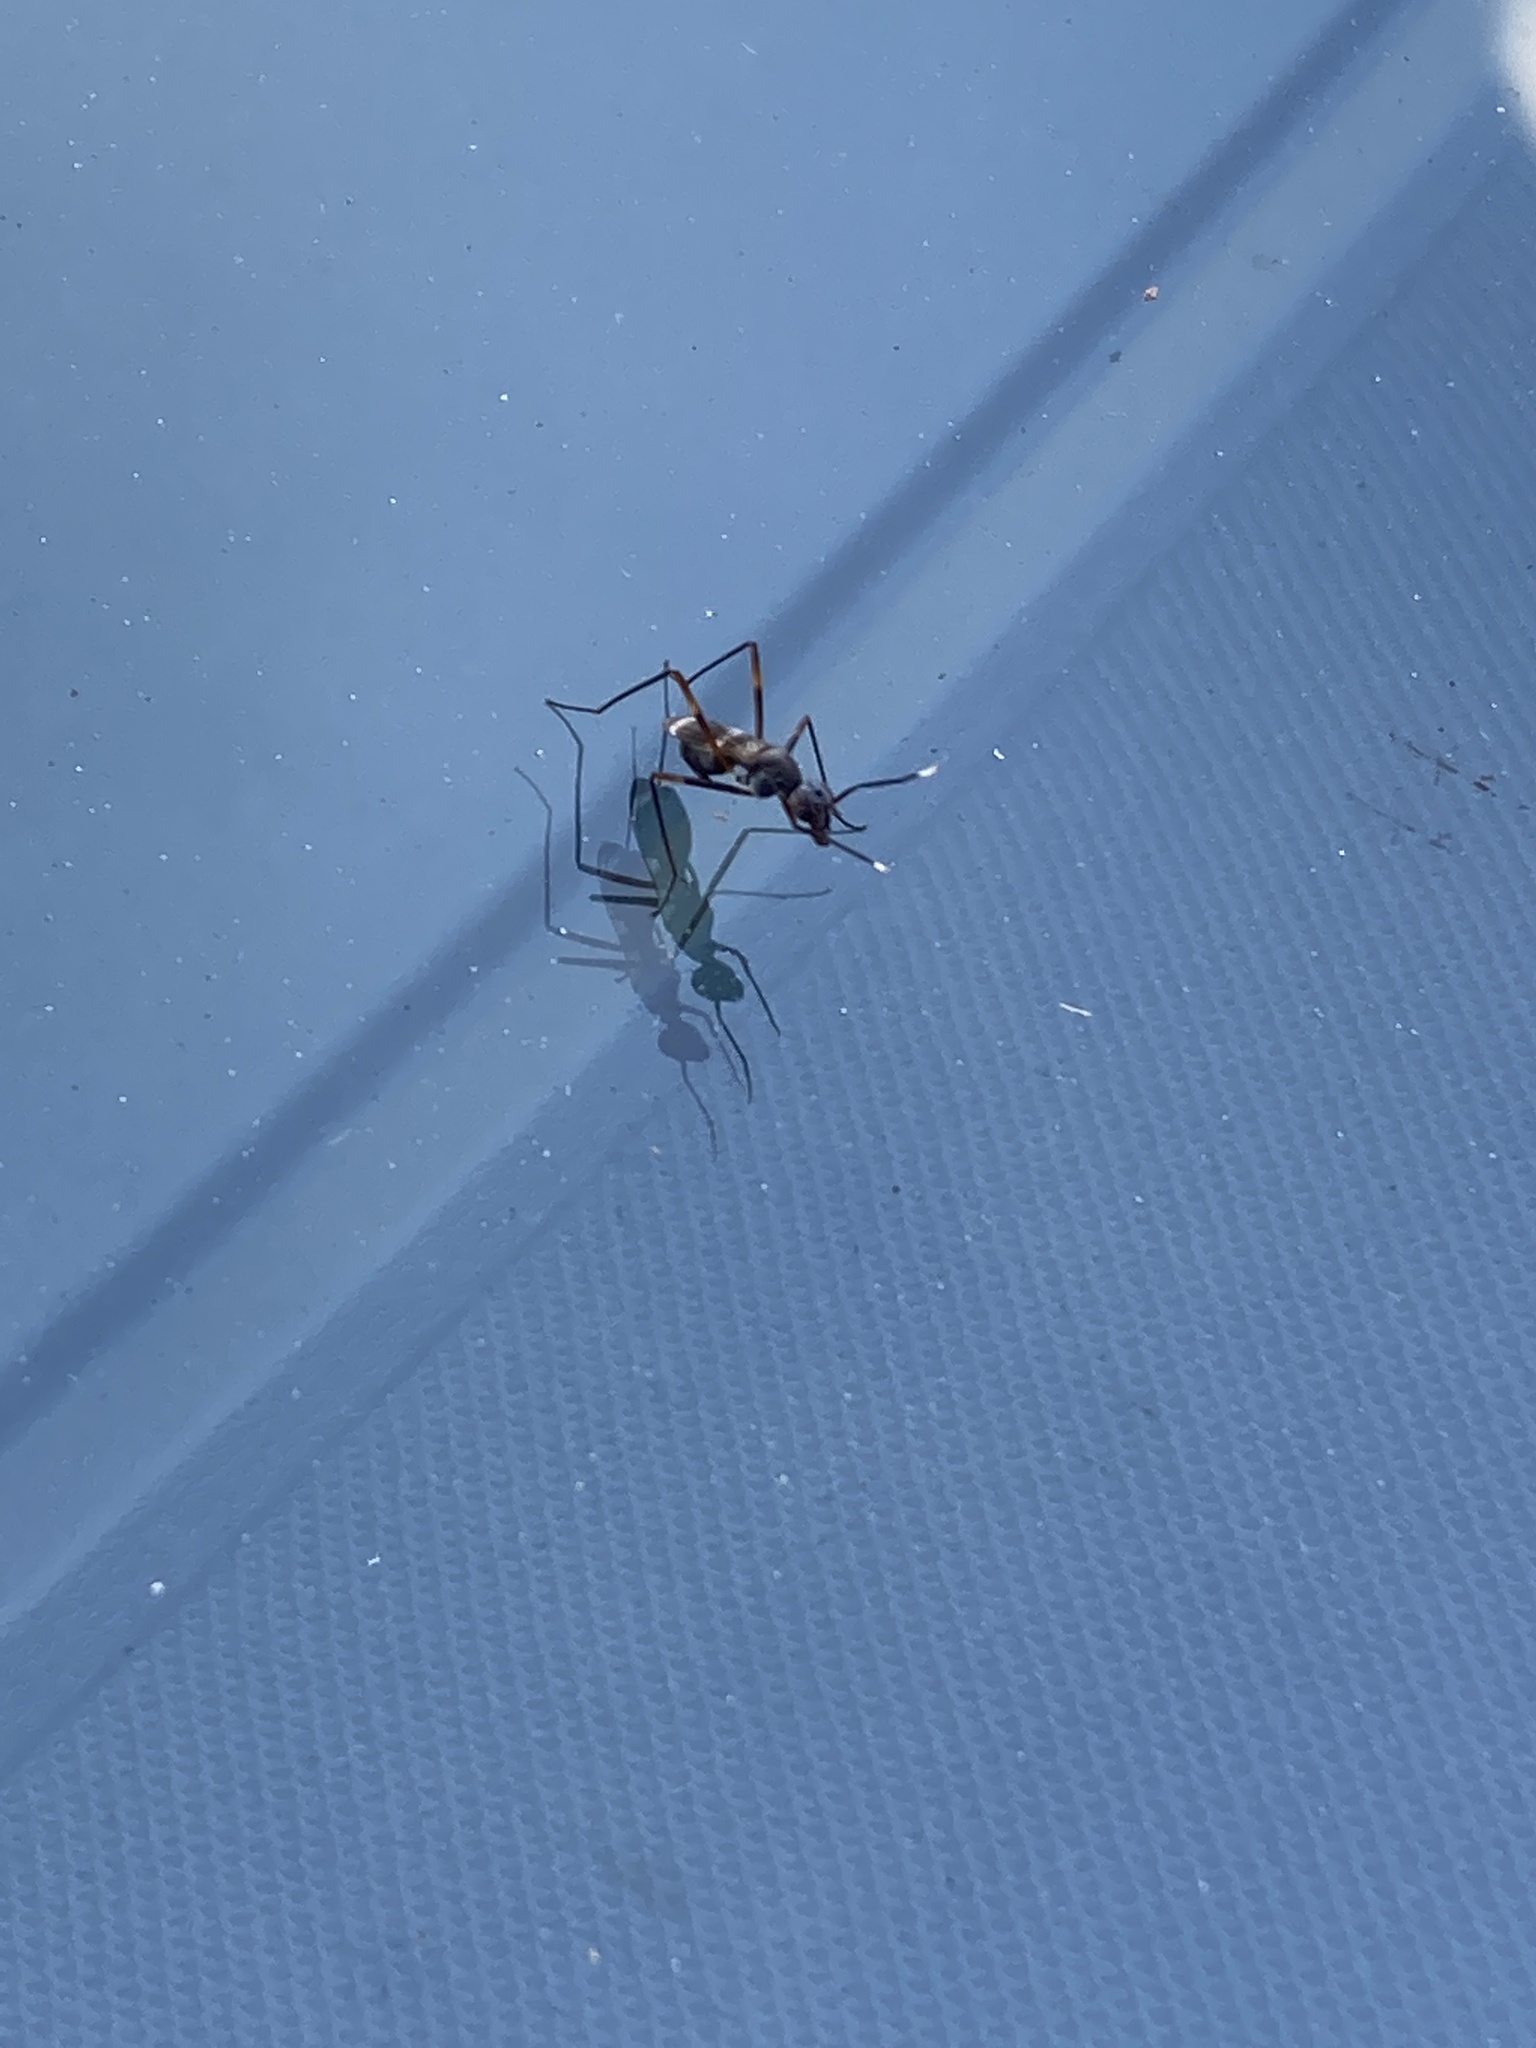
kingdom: Animalia
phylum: Arthropoda
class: Insecta
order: Diptera
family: Micropezidae
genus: Taeniaptera
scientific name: Taeniaptera trivittata
